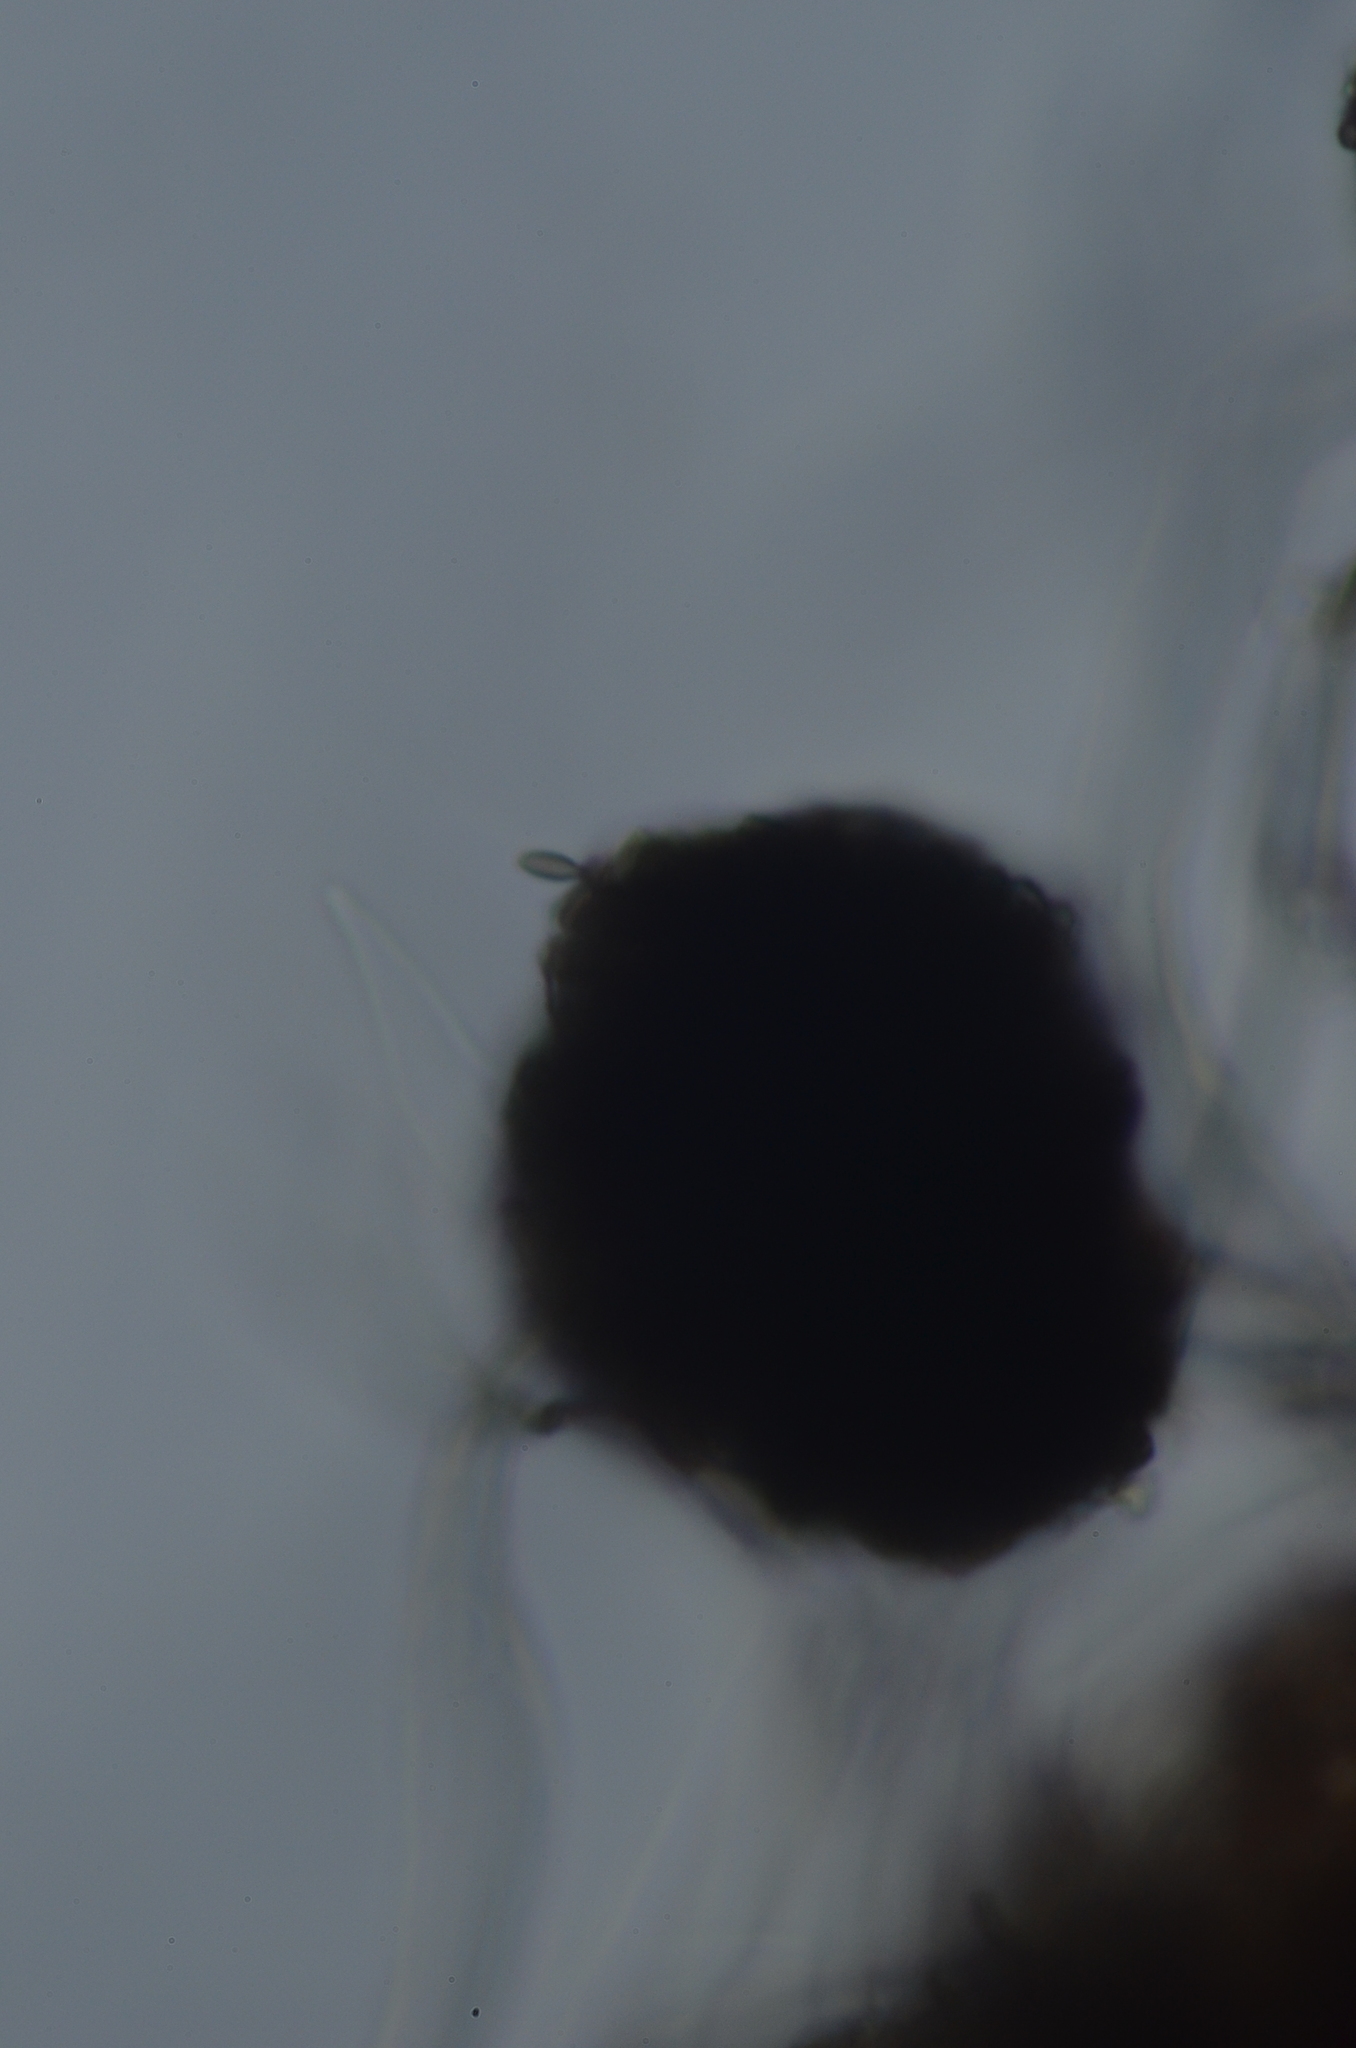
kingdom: Fungi
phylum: Ascomycota
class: Leotiomycetes
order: Helotiales
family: Amorphothecaceae
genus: Sorocybe
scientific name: Sorocybe resinae
